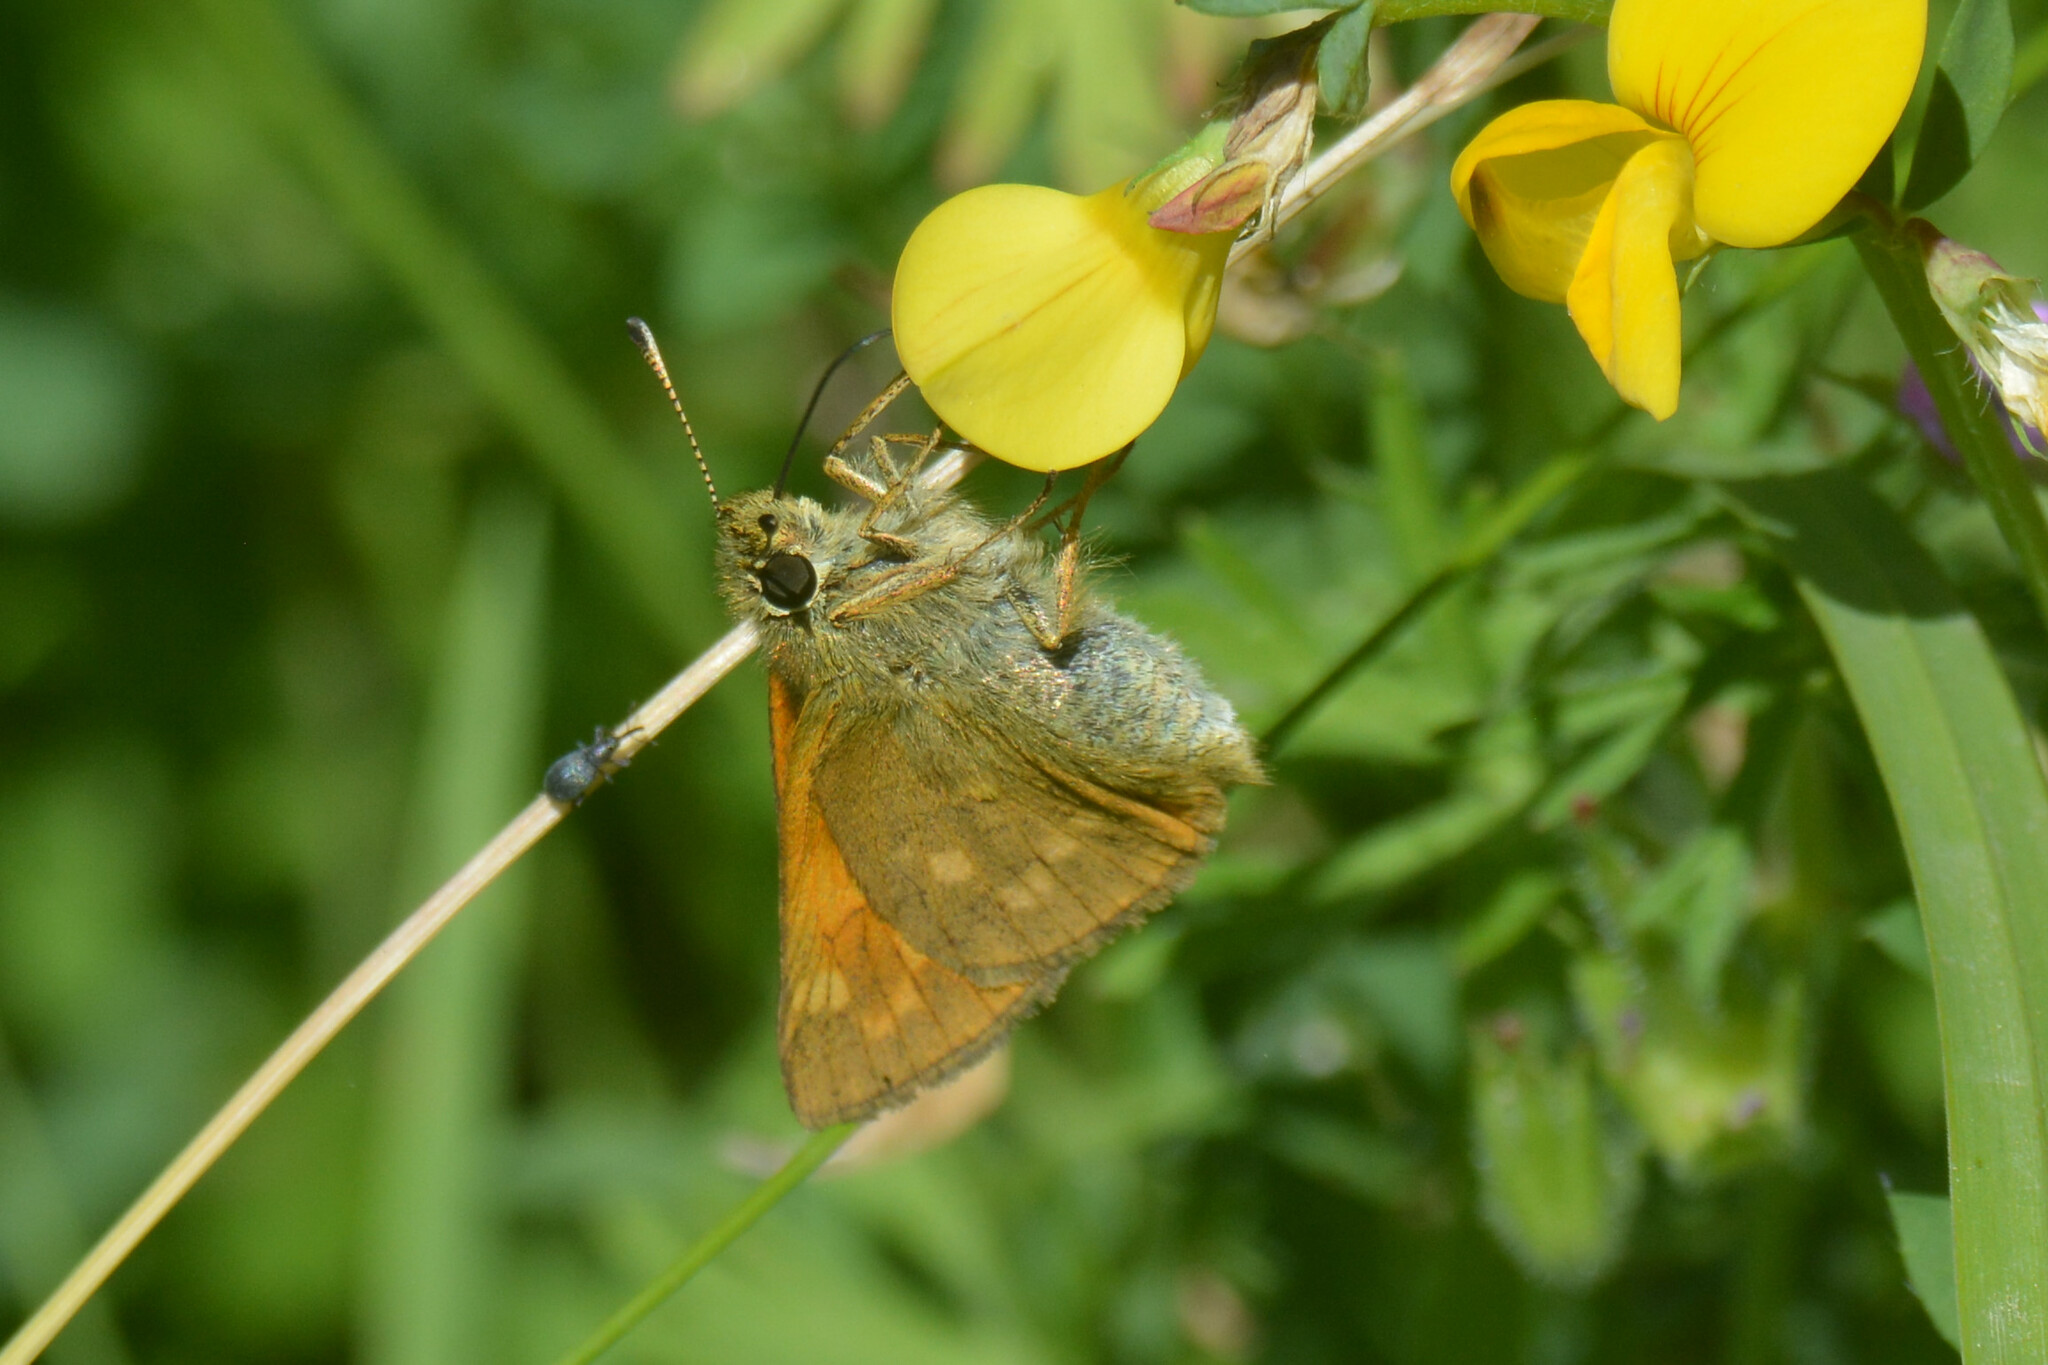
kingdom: Animalia
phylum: Arthropoda
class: Insecta
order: Lepidoptera
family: Hesperiidae
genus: Ochlodes
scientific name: Ochlodes venata
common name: Large skipper
